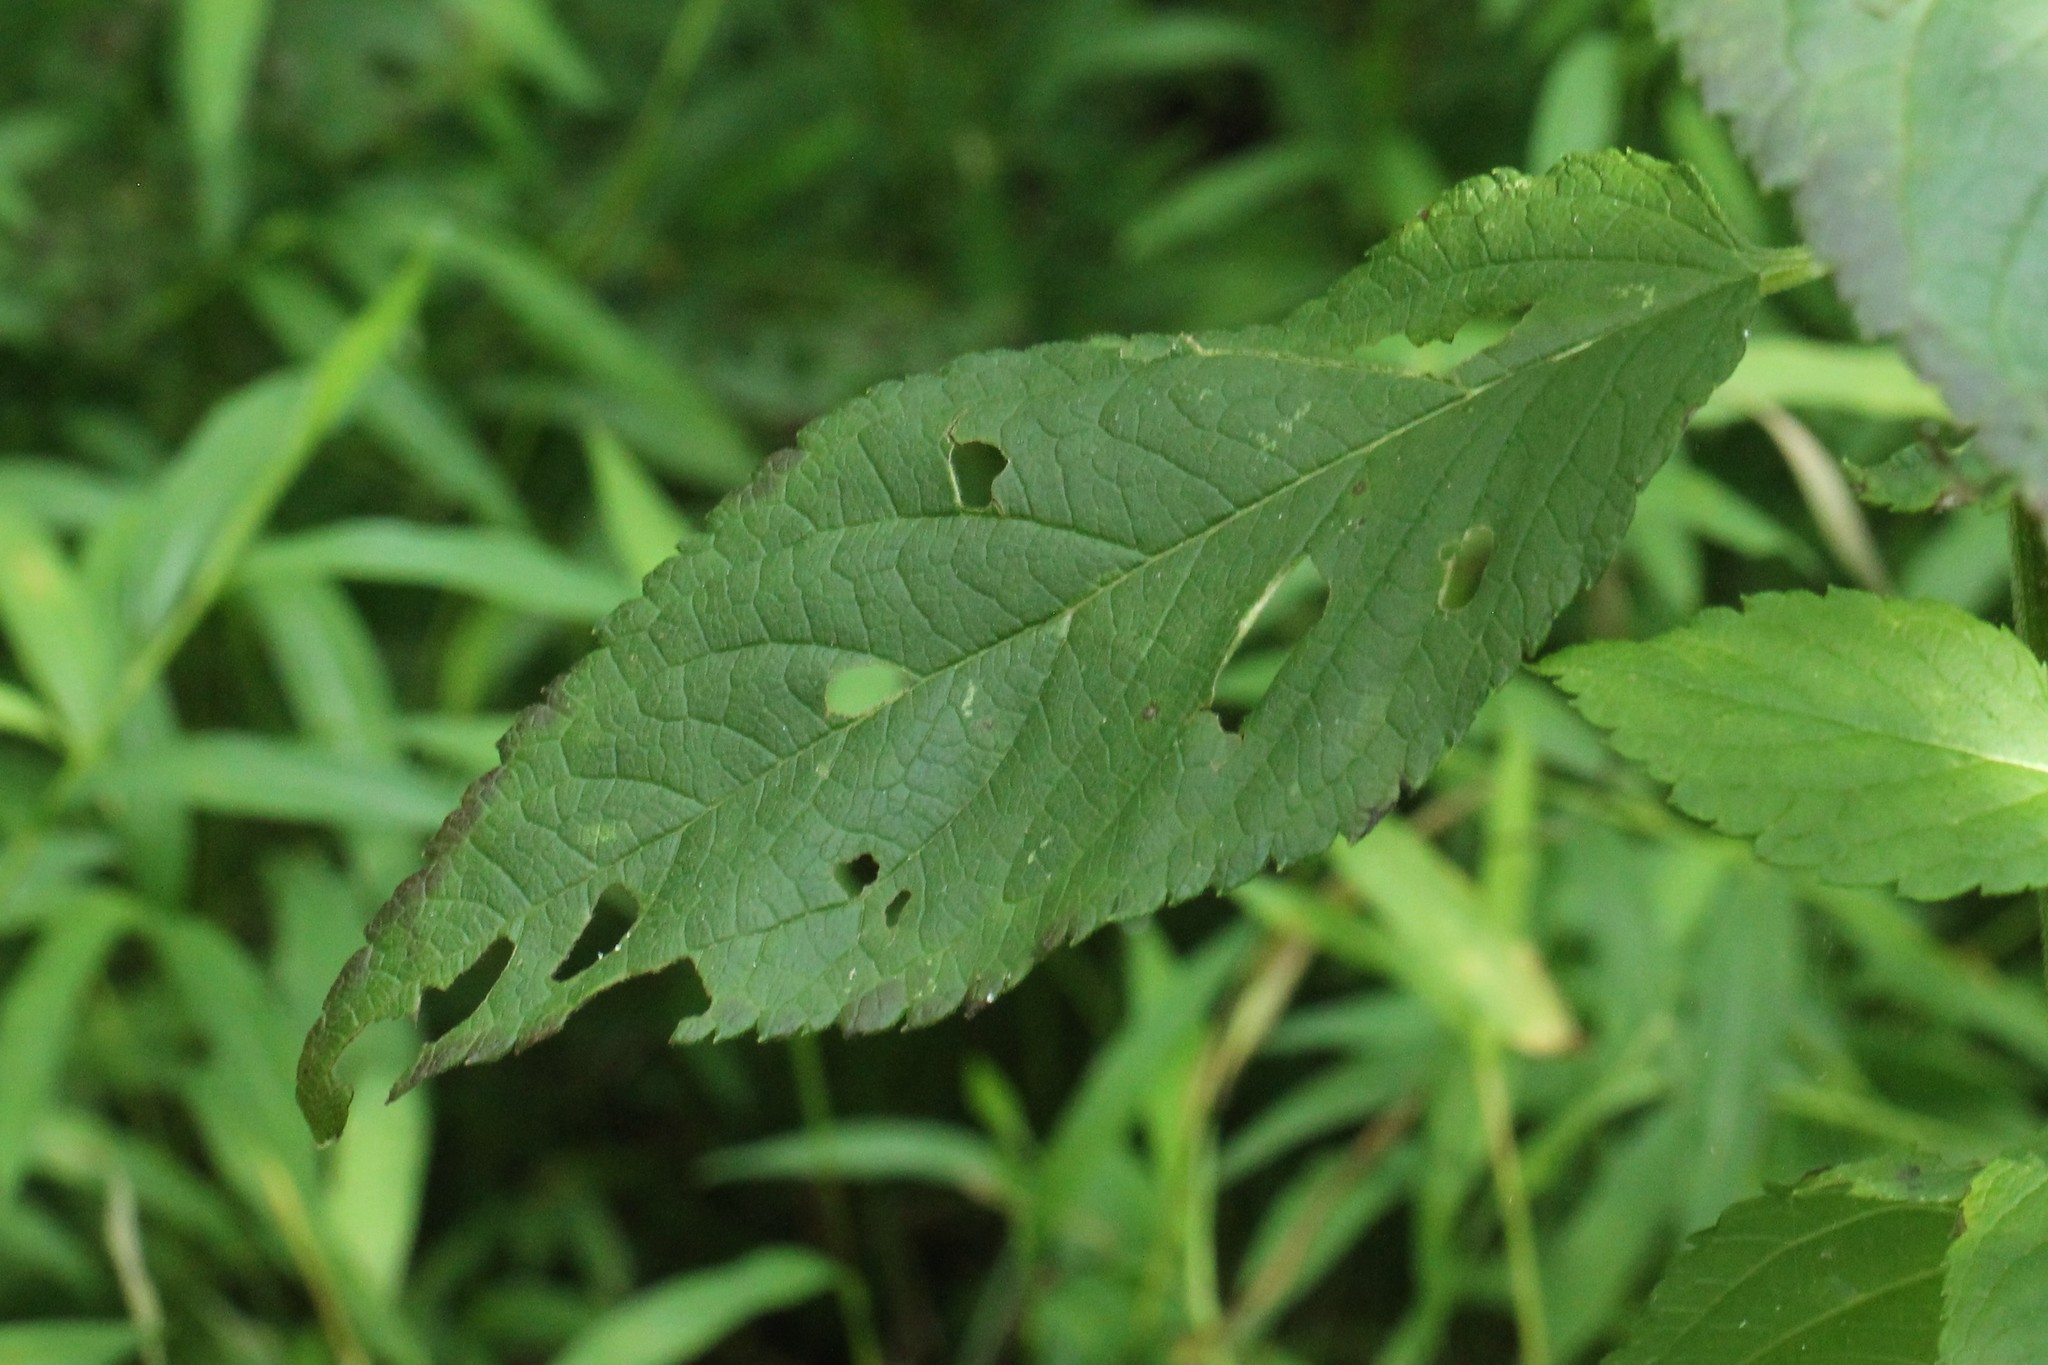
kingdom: Plantae
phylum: Tracheophyta
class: Magnoliopsida
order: Lamiales
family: Lamiaceae
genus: Teucrium
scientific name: Teucrium canadense
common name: American germander
